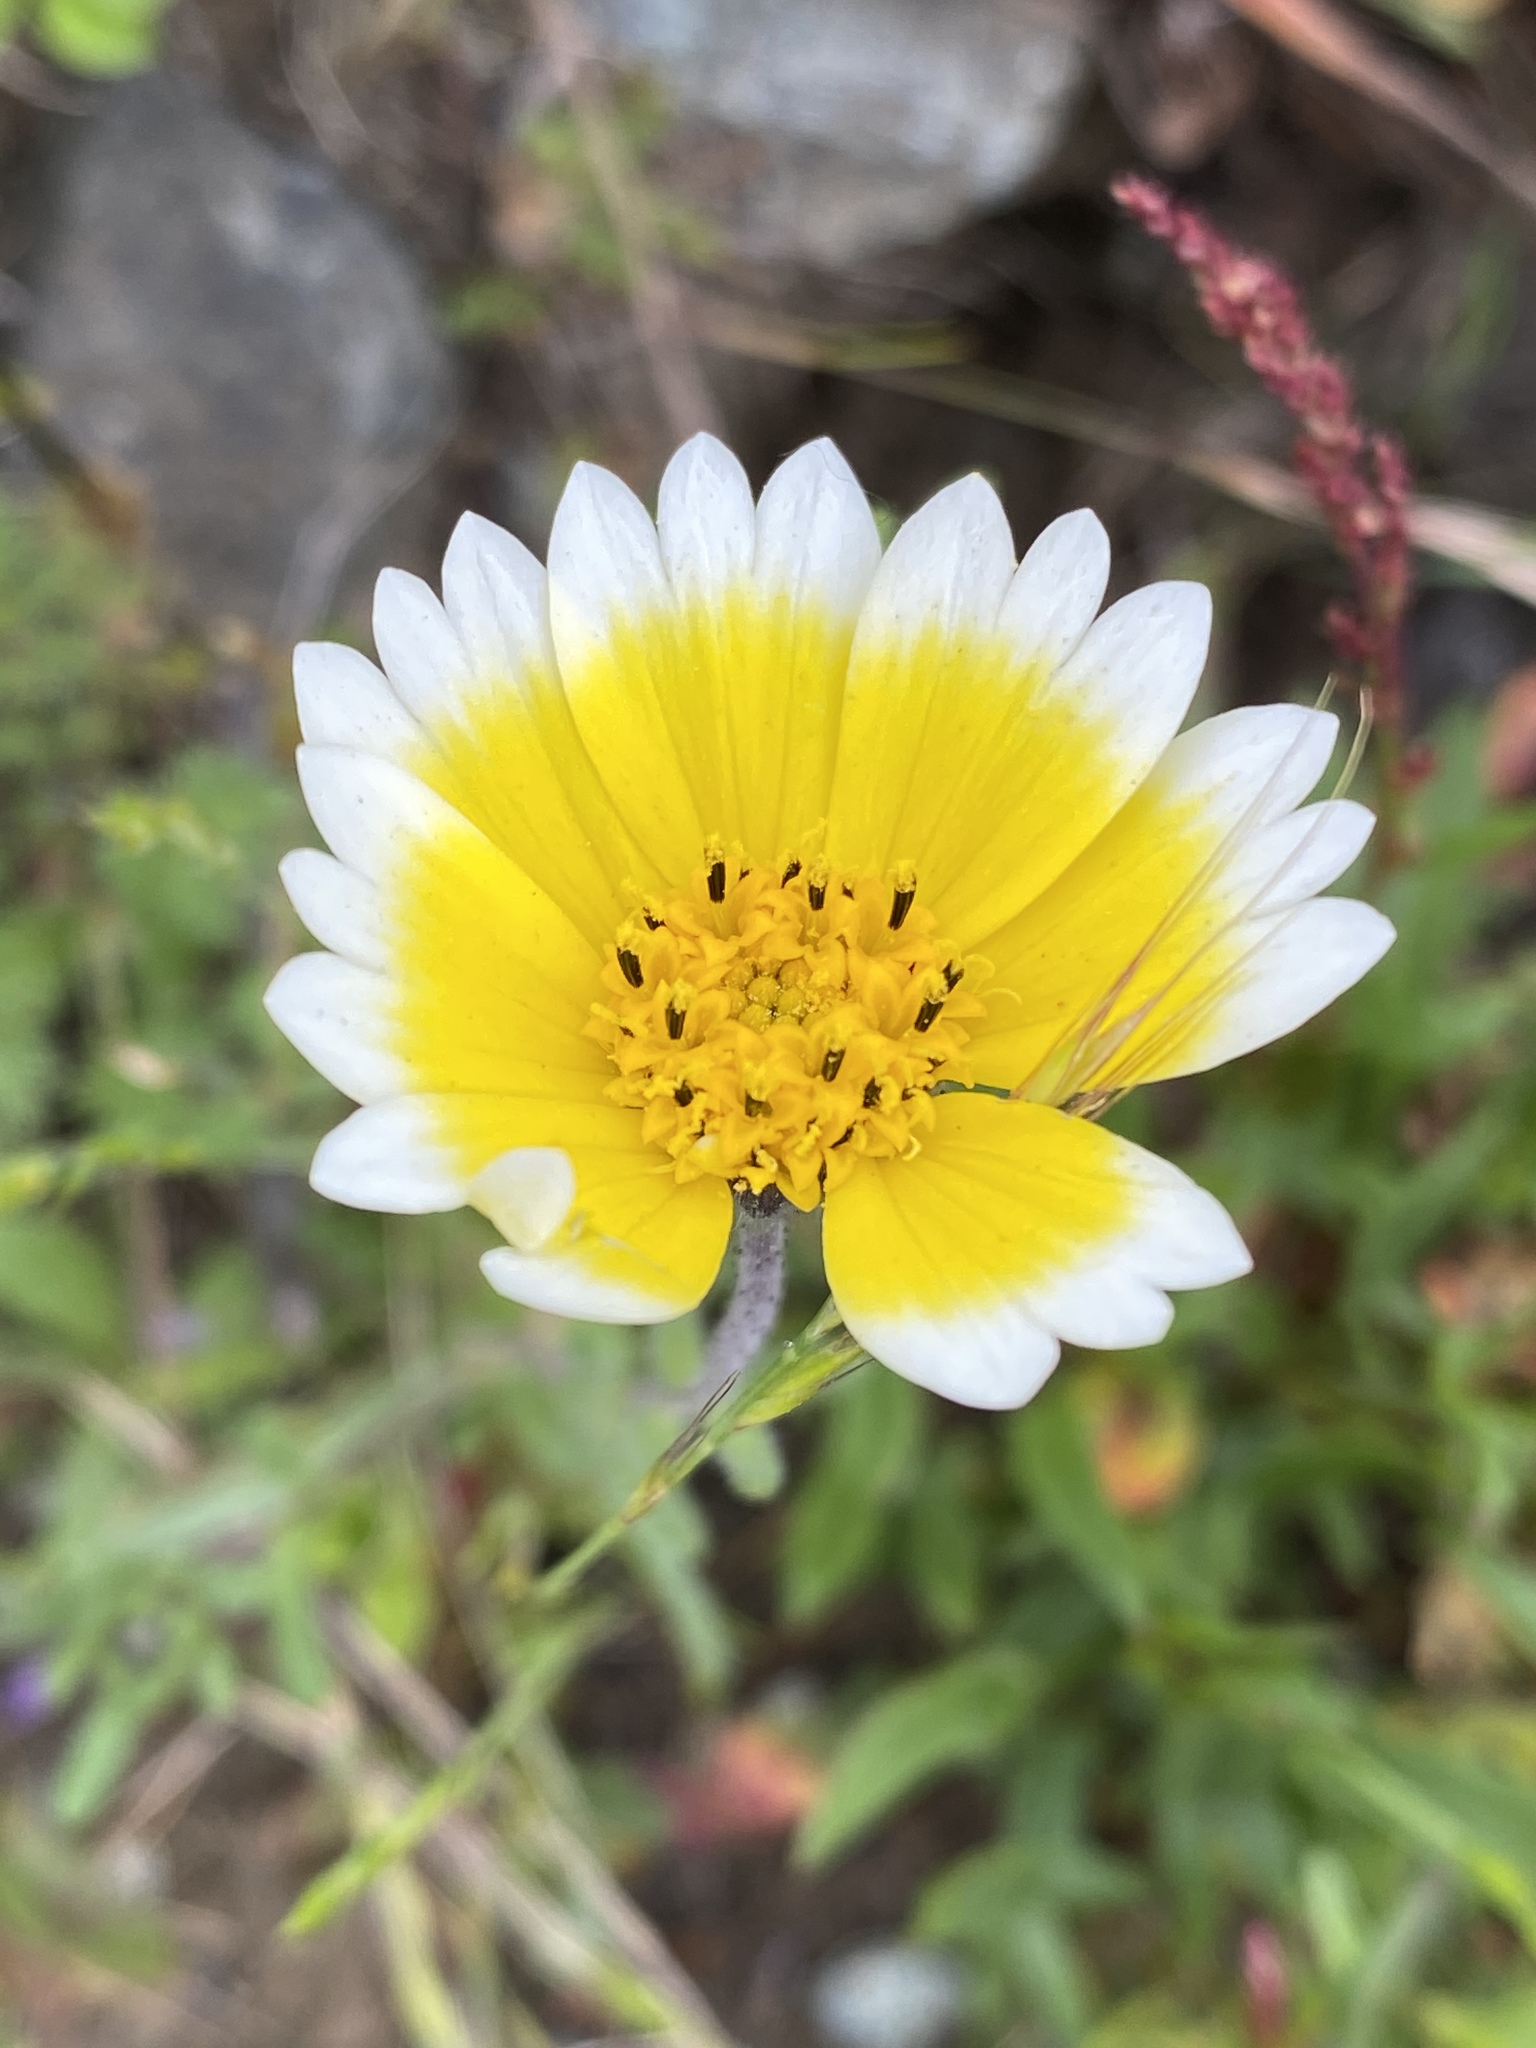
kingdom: Plantae
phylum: Tracheophyta
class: Magnoliopsida
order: Asterales
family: Asteraceae
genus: Layia
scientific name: Layia platyglossa
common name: Tidy-tips
